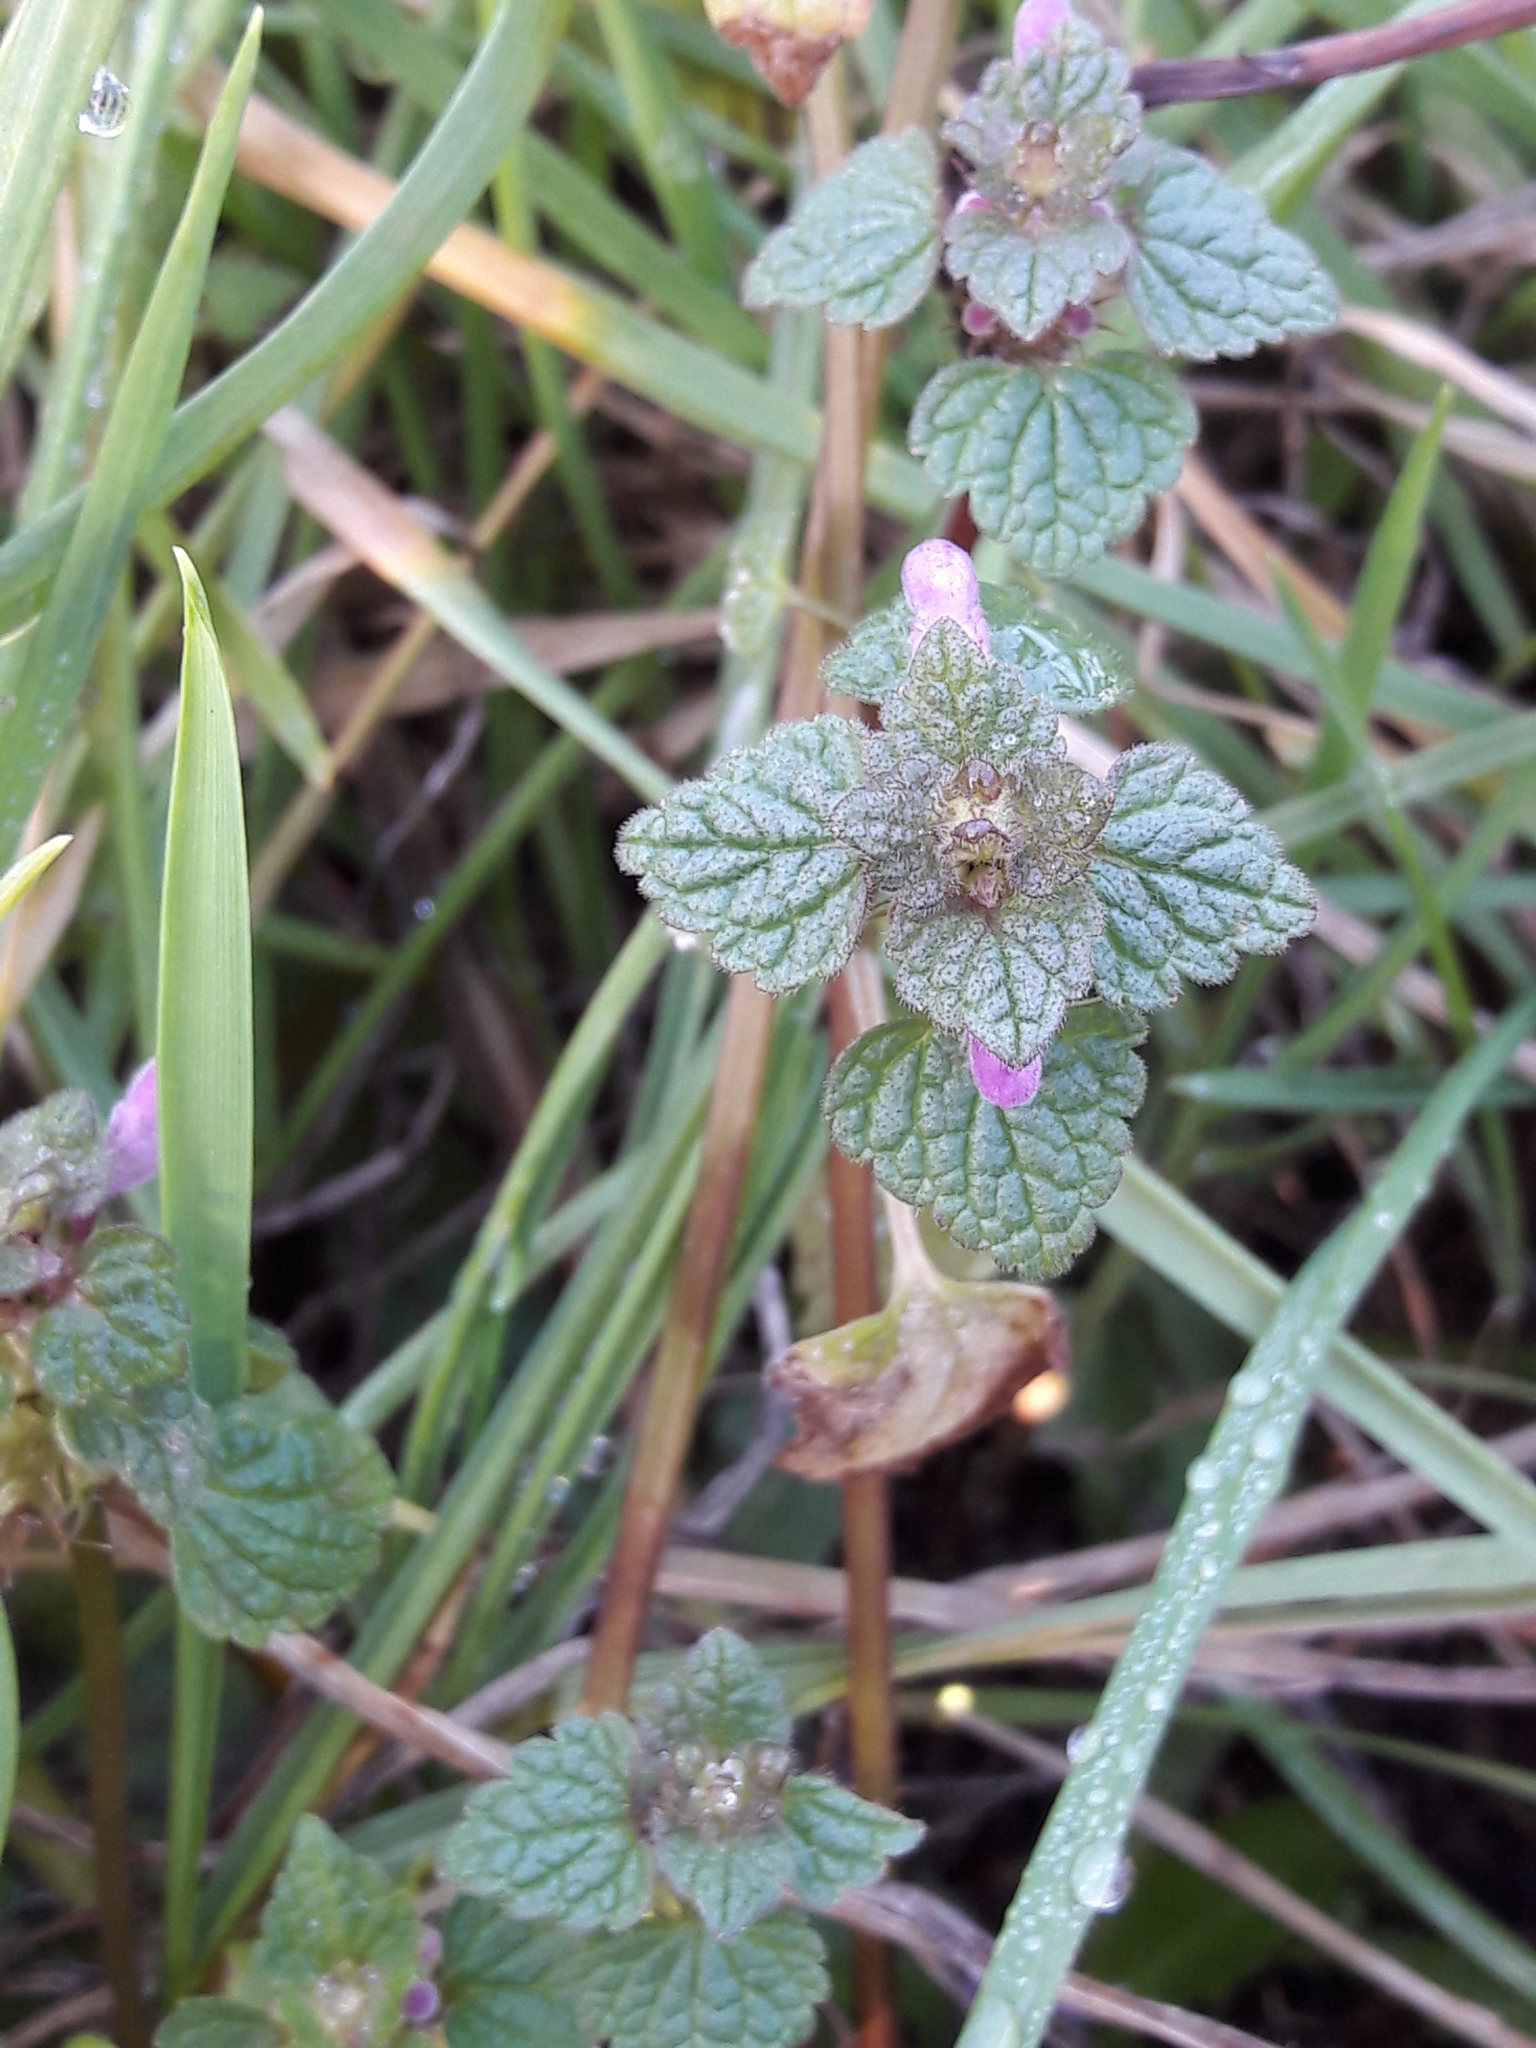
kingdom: Plantae
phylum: Tracheophyta
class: Magnoliopsida
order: Lamiales
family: Lamiaceae
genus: Lamium
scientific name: Lamium purpureum
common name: Red dead-nettle
